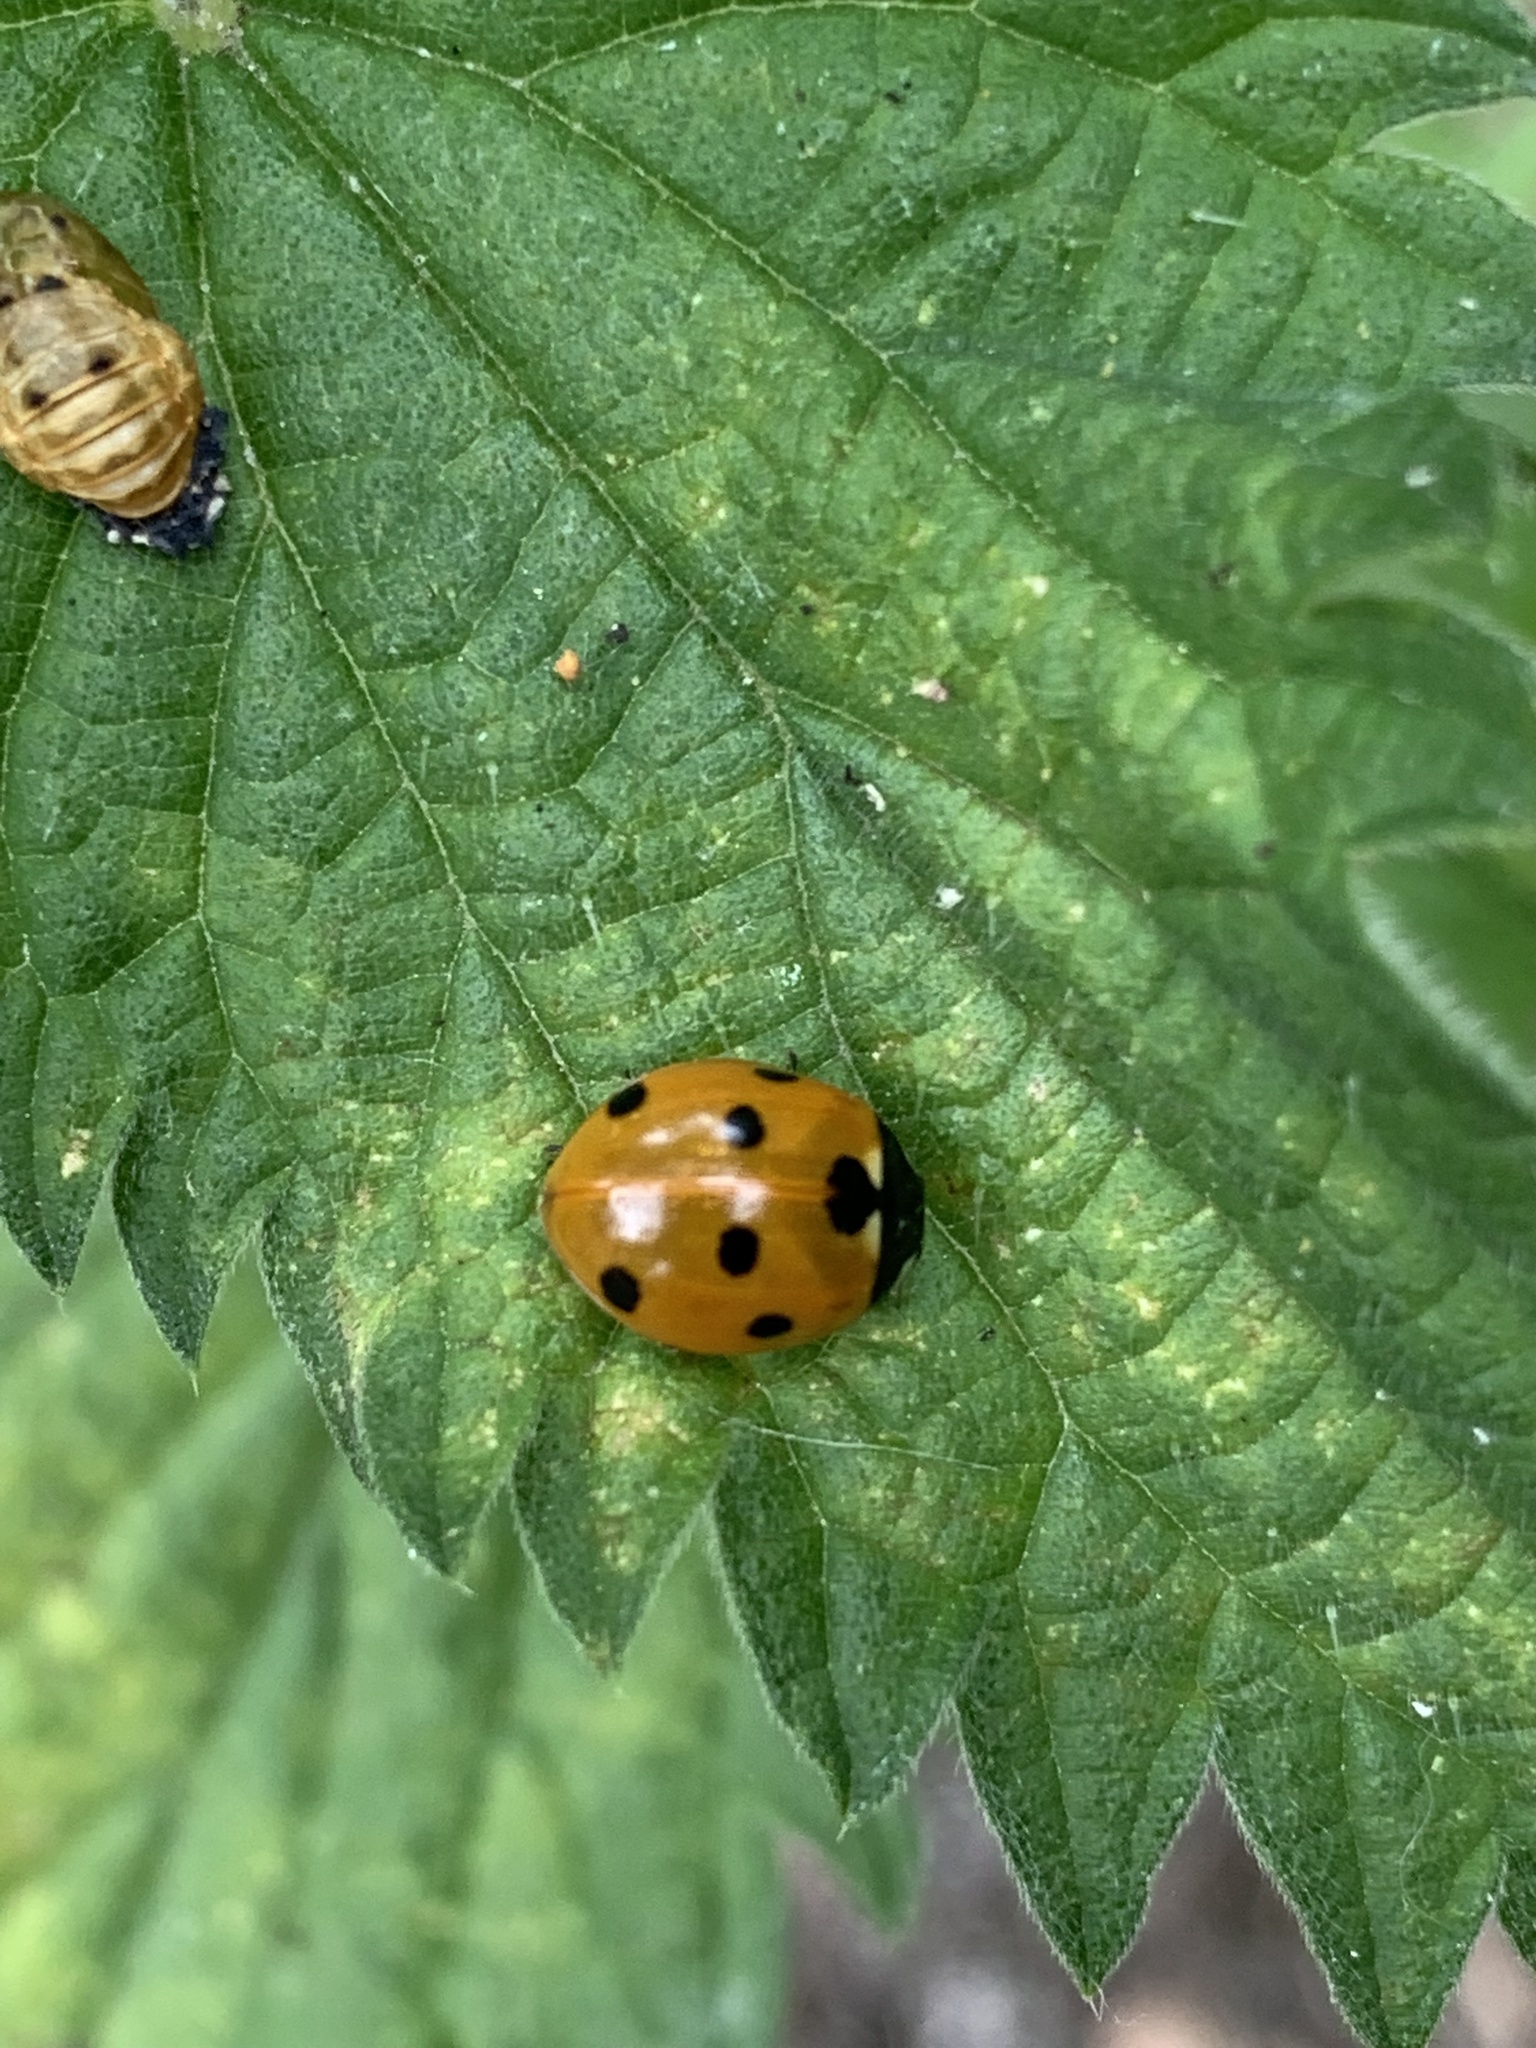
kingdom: Animalia
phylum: Arthropoda
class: Insecta
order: Coleoptera
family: Coccinellidae
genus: Coccinella
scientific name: Coccinella septempunctata
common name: Sevenspotted lady beetle
